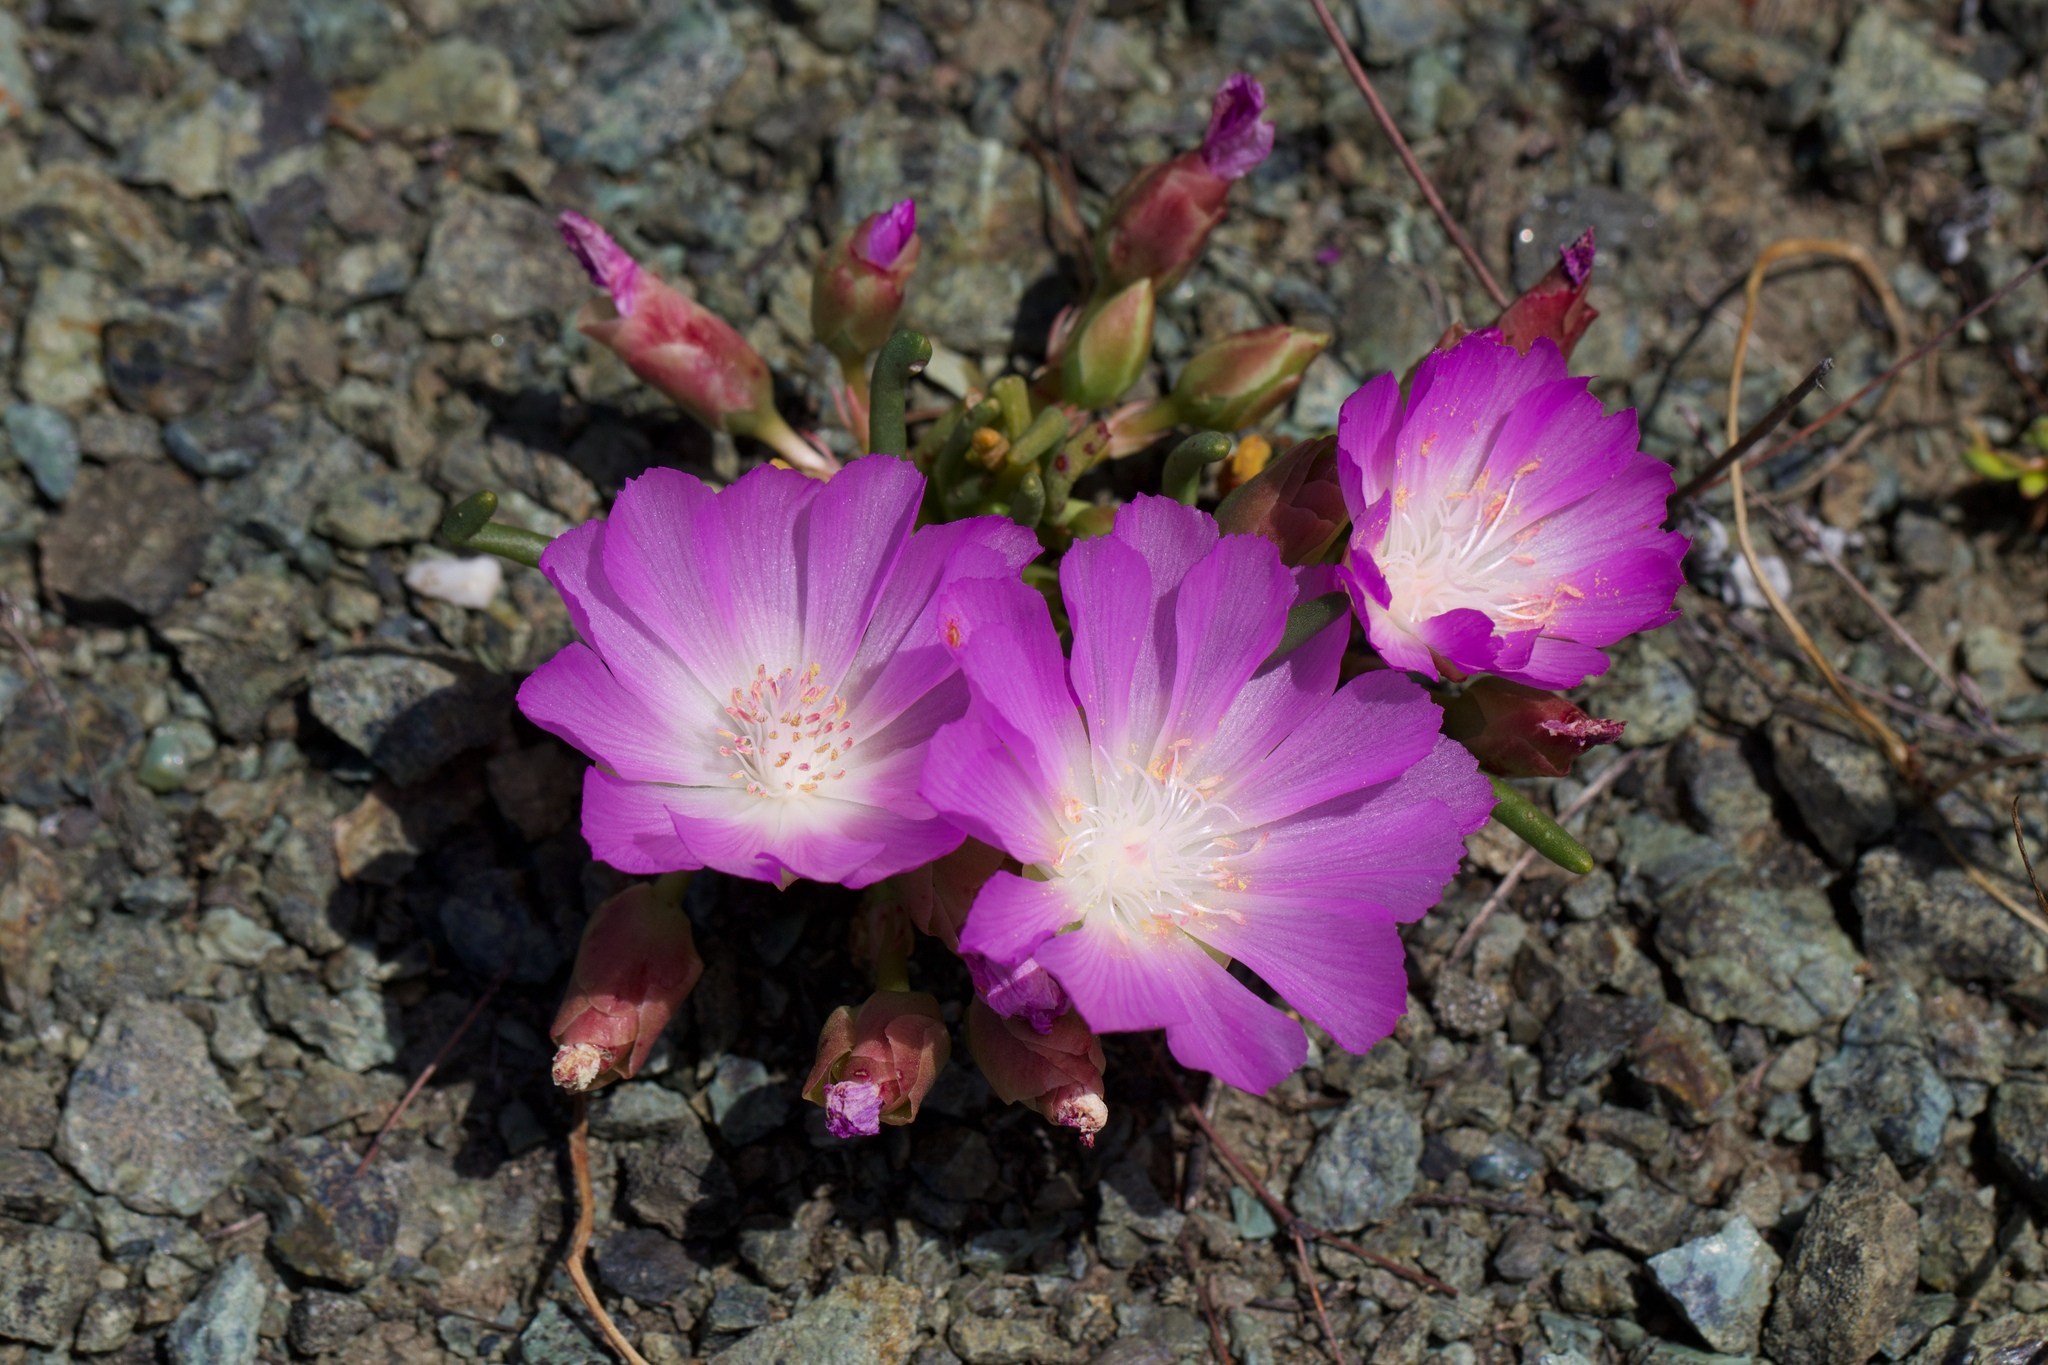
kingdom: Plantae
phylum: Tracheophyta
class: Magnoliopsida
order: Caryophyllales
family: Montiaceae
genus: Lewisia
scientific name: Lewisia rediviva
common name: Bitter-root
